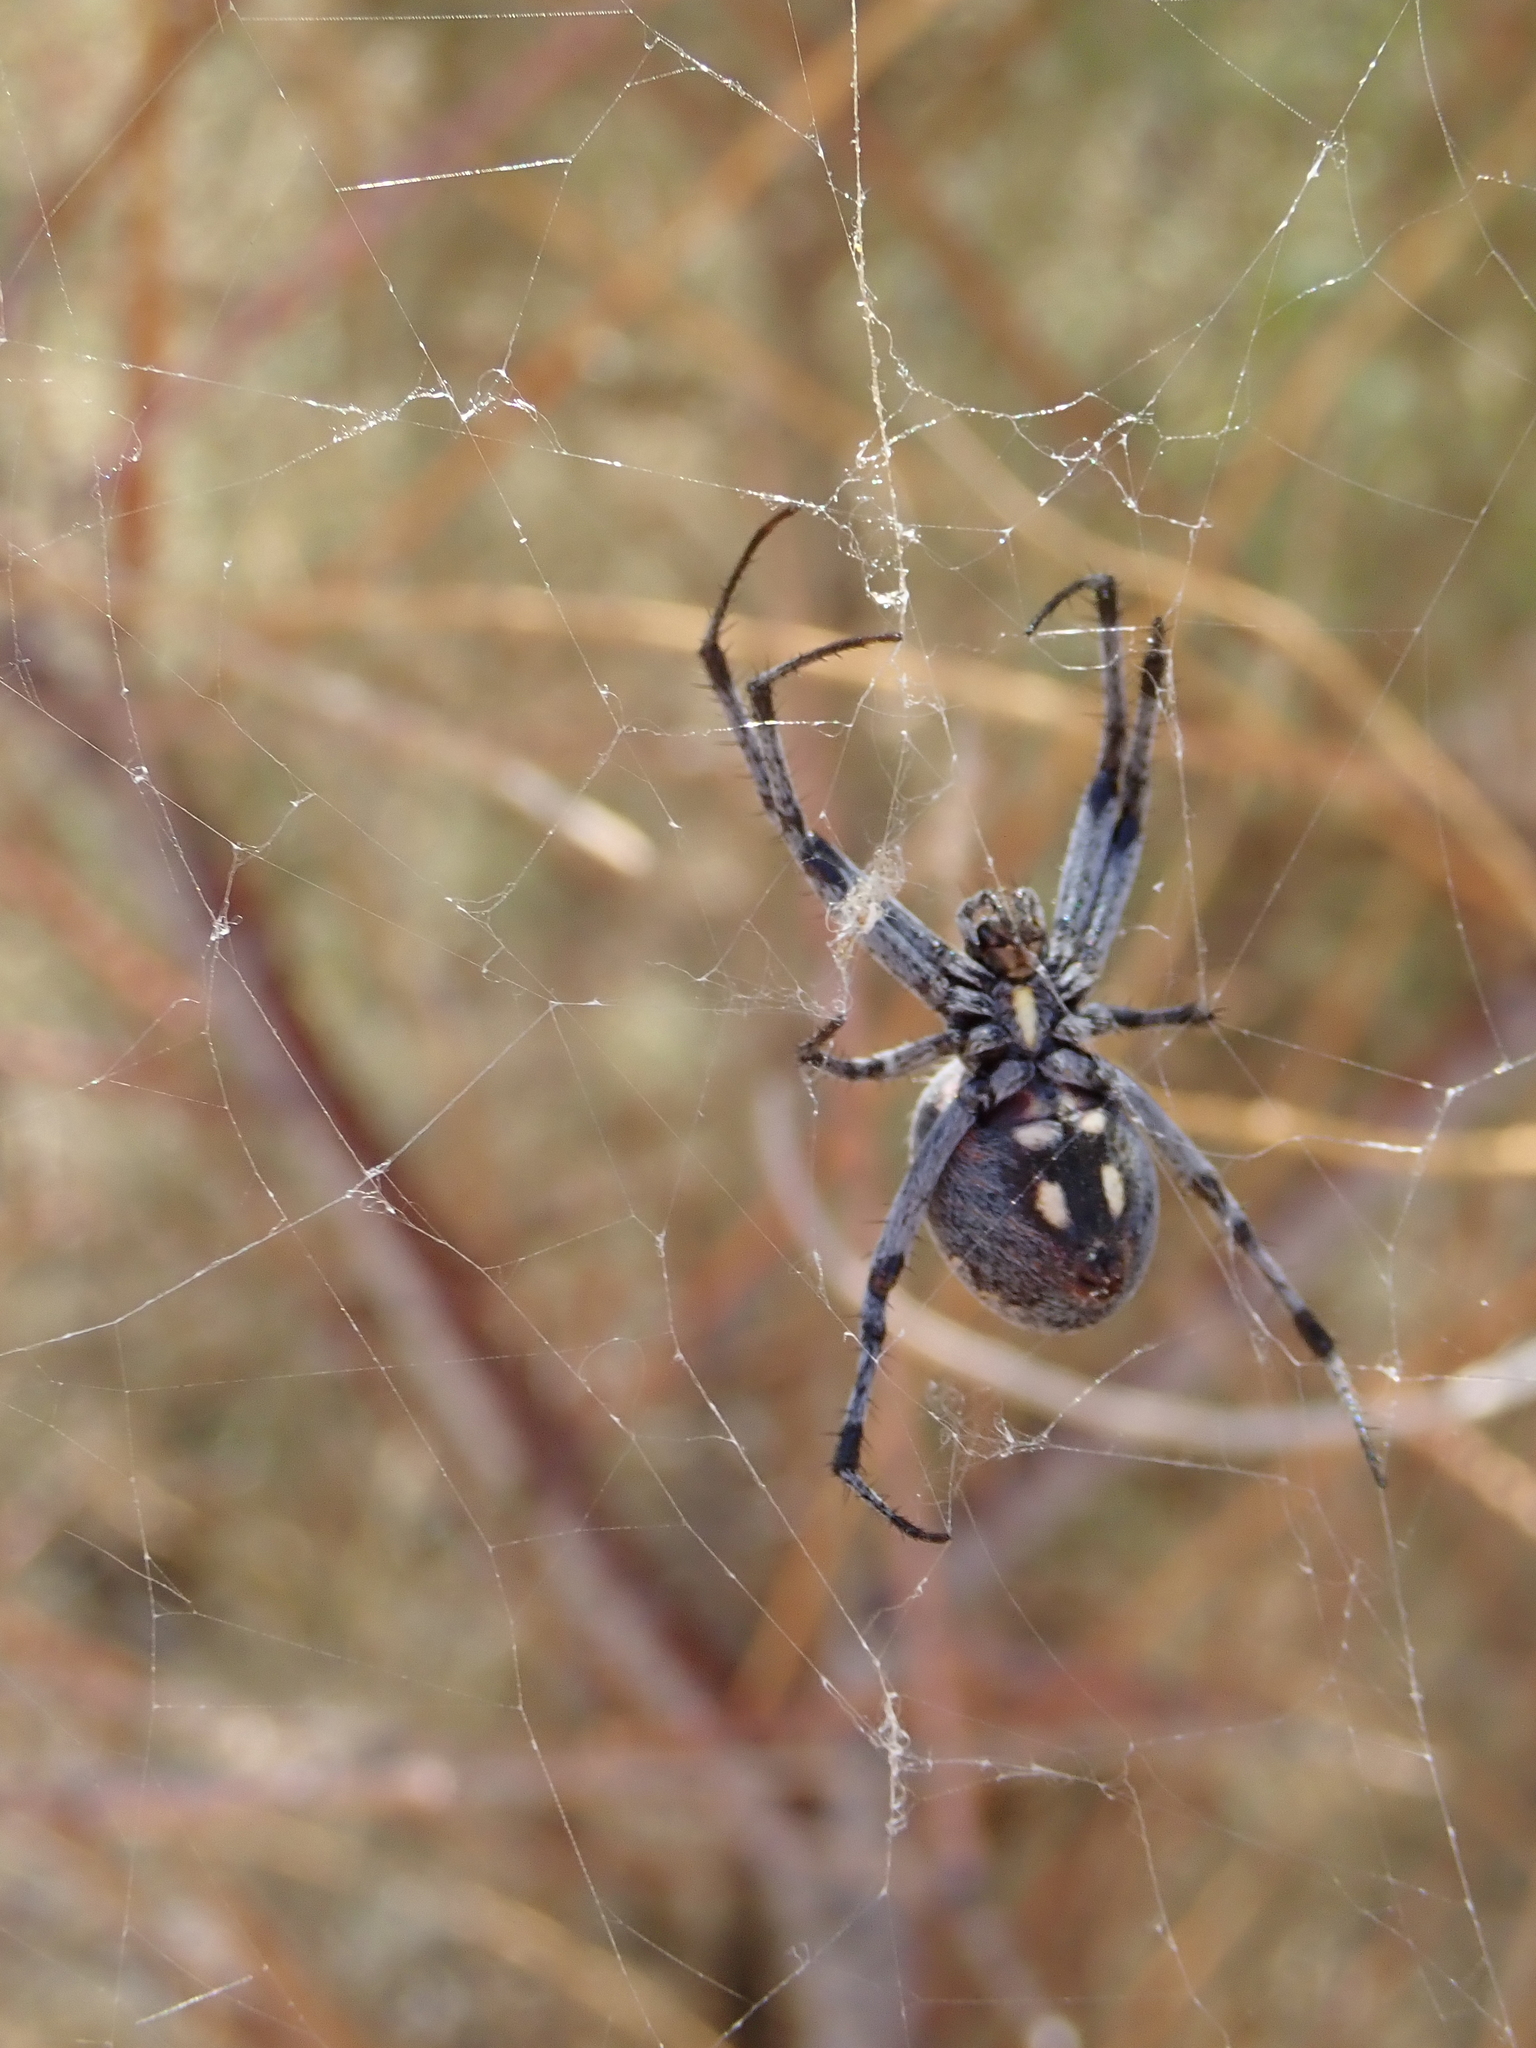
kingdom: Animalia
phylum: Arthropoda
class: Arachnida
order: Araneae
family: Araneidae
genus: Neoscona
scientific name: Neoscona oaxacensis
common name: Orb weavers
